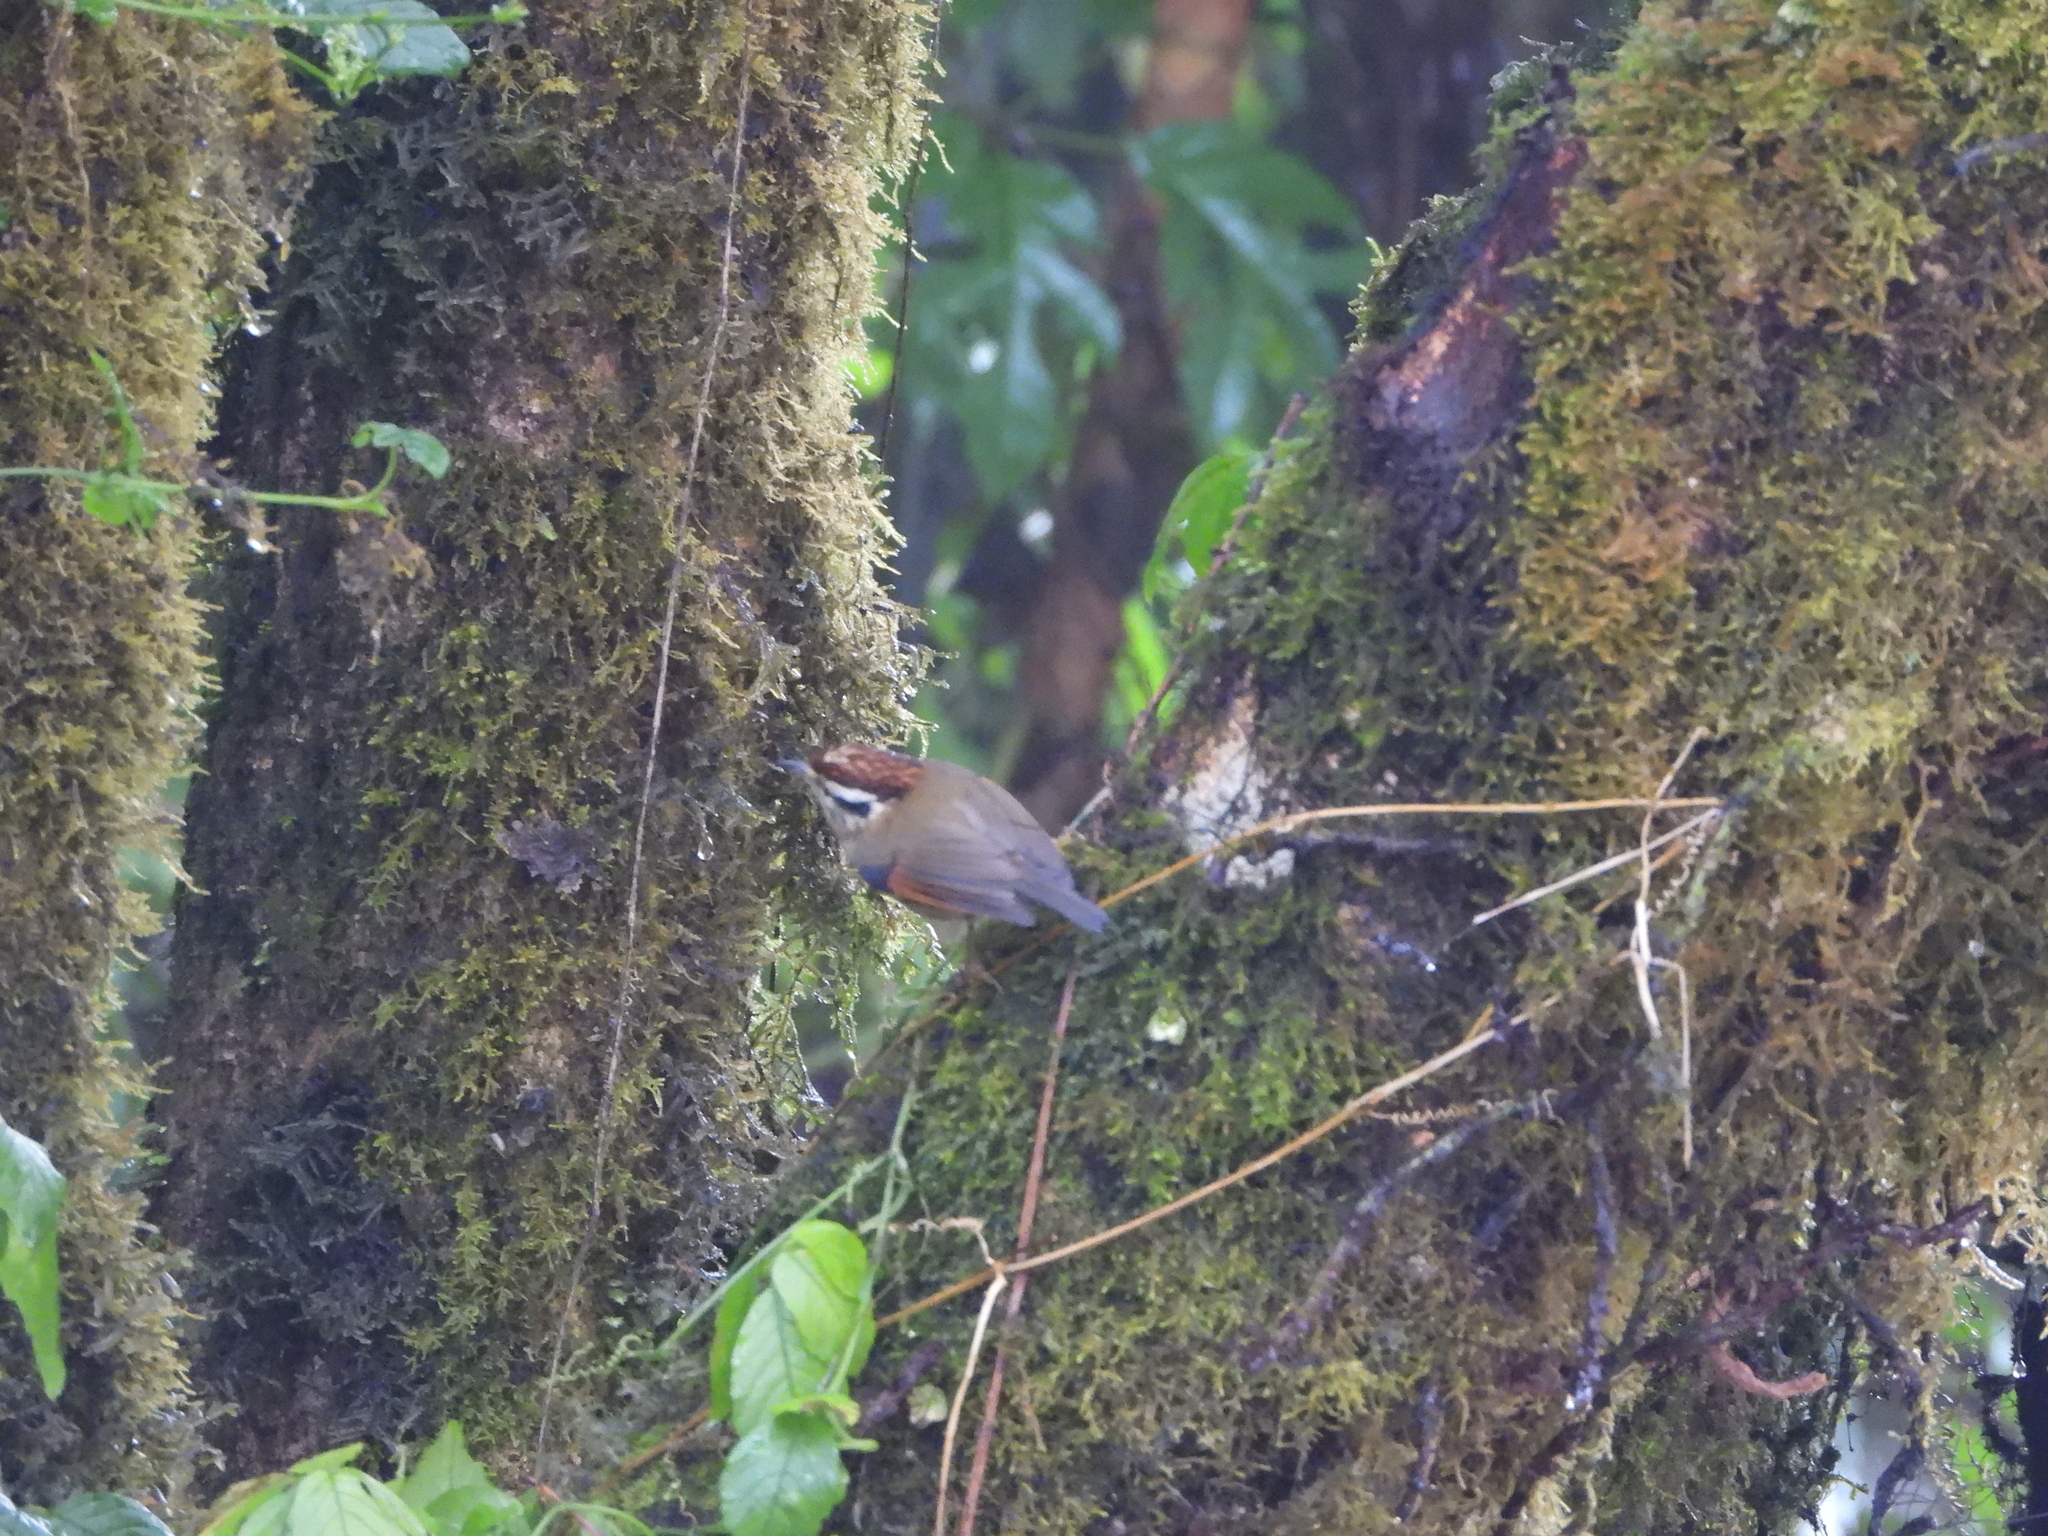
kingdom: Animalia
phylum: Chordata
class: Aves
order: Passeriformes
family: Pellorneidae
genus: Alcippe
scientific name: Alcippe castaneceps
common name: Rufous-winged fulvetta
